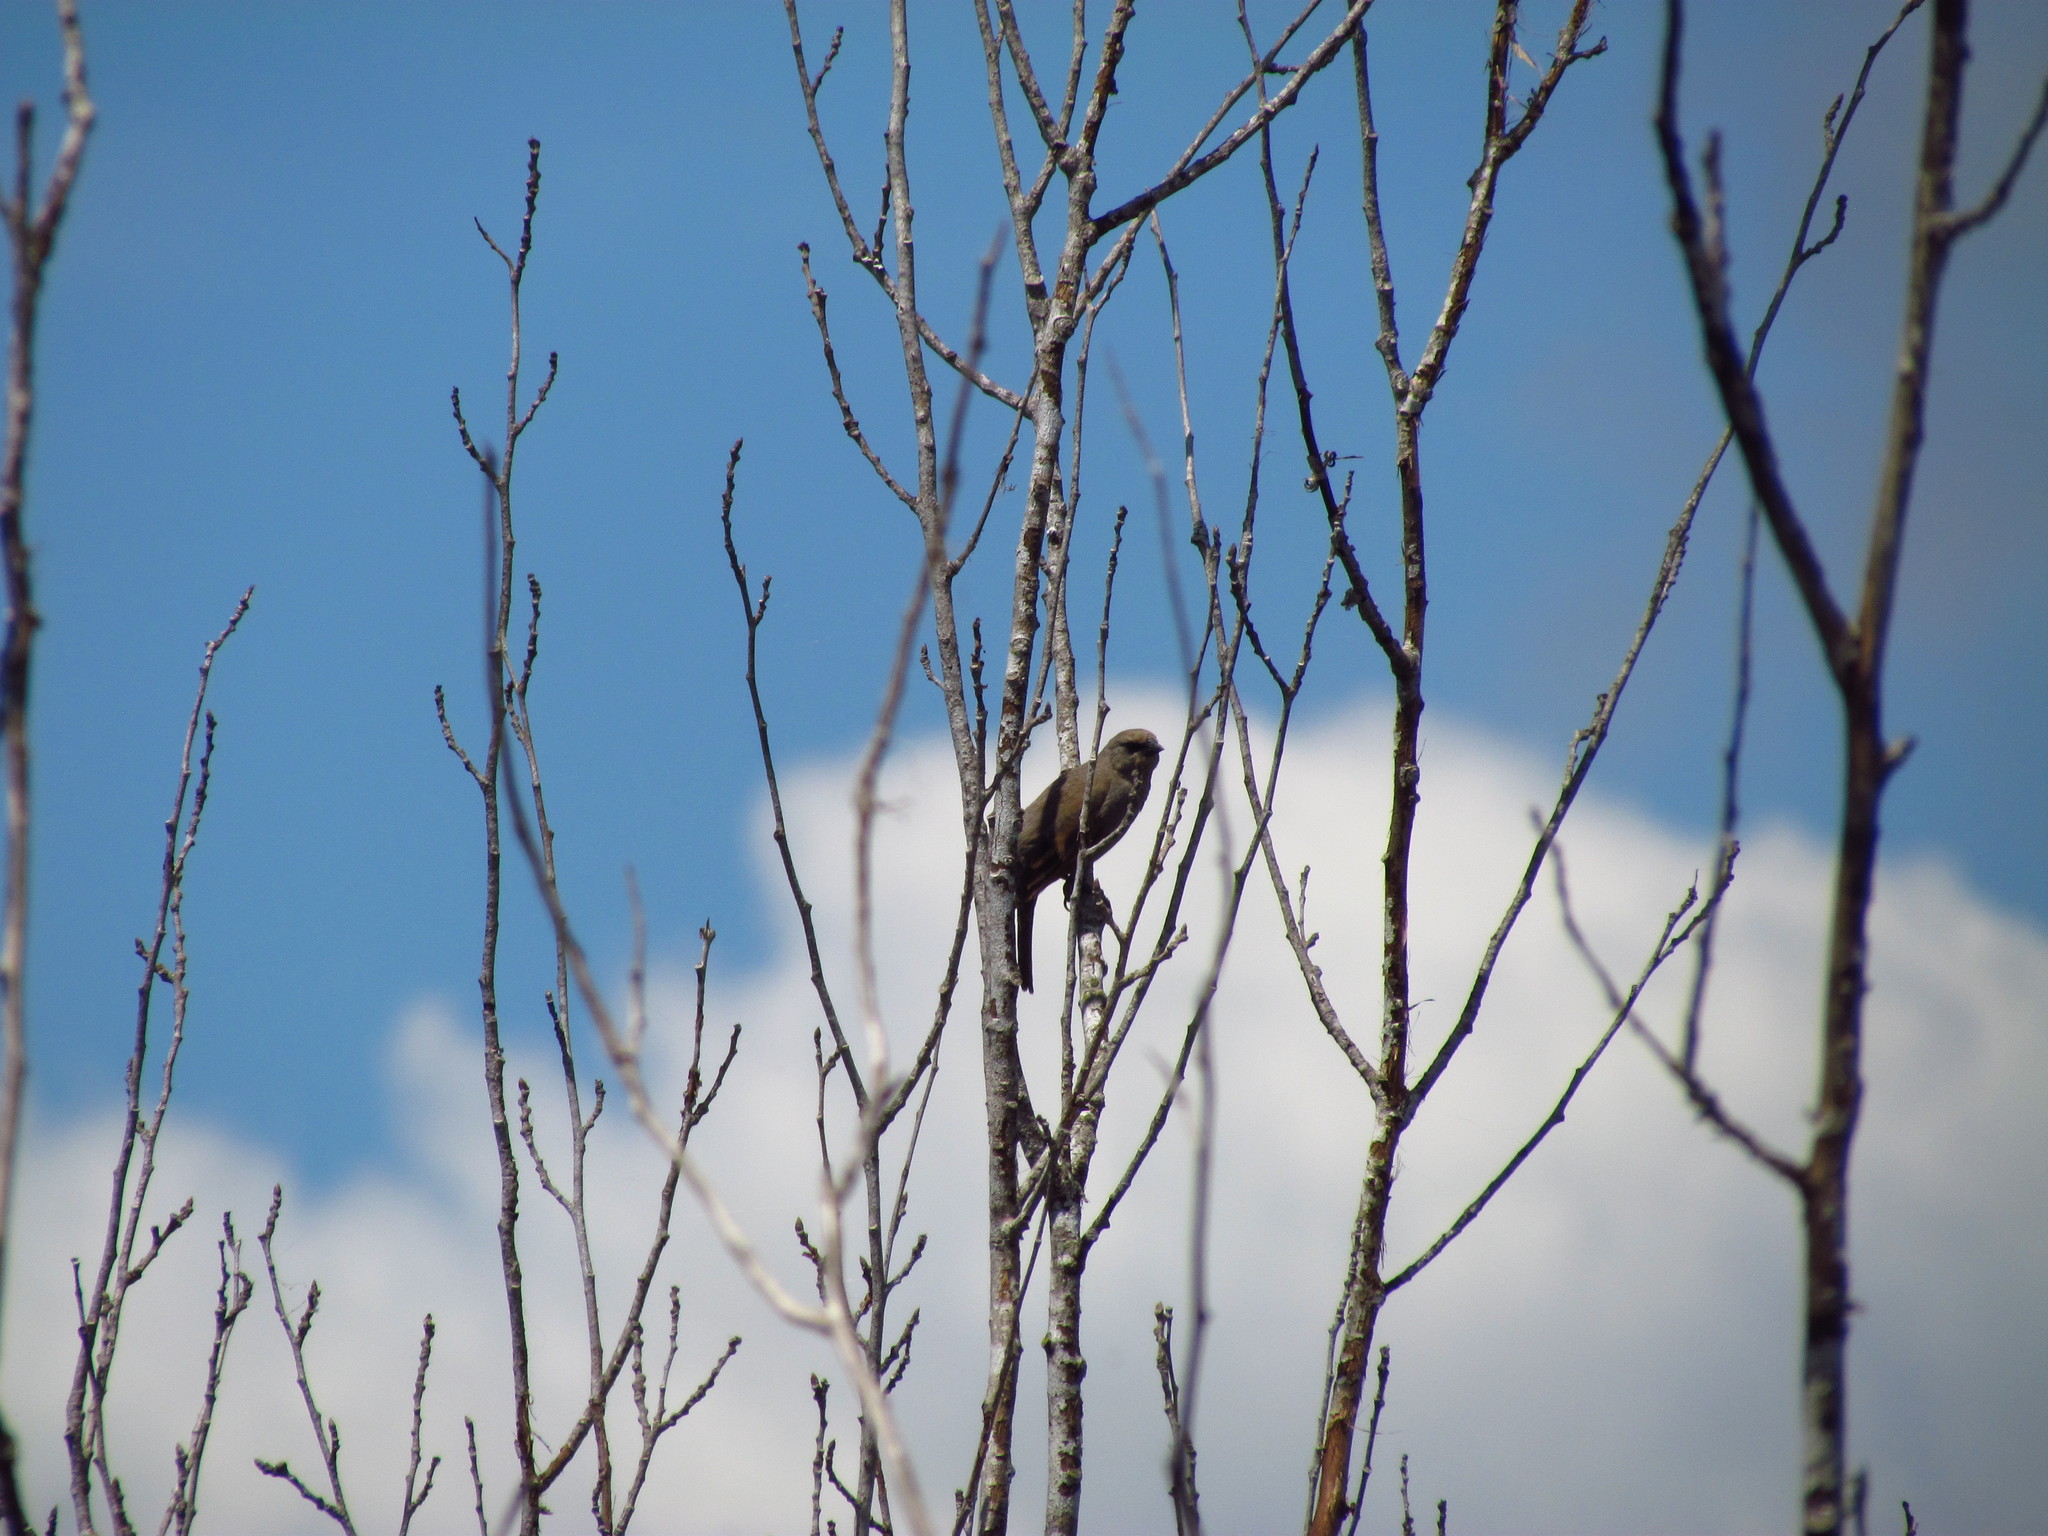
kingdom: Animalia
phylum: Chordata
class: Aves
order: Passeriformes
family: Icteridae
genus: Agelaioides
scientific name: Agelaioides badius
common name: Baywing
